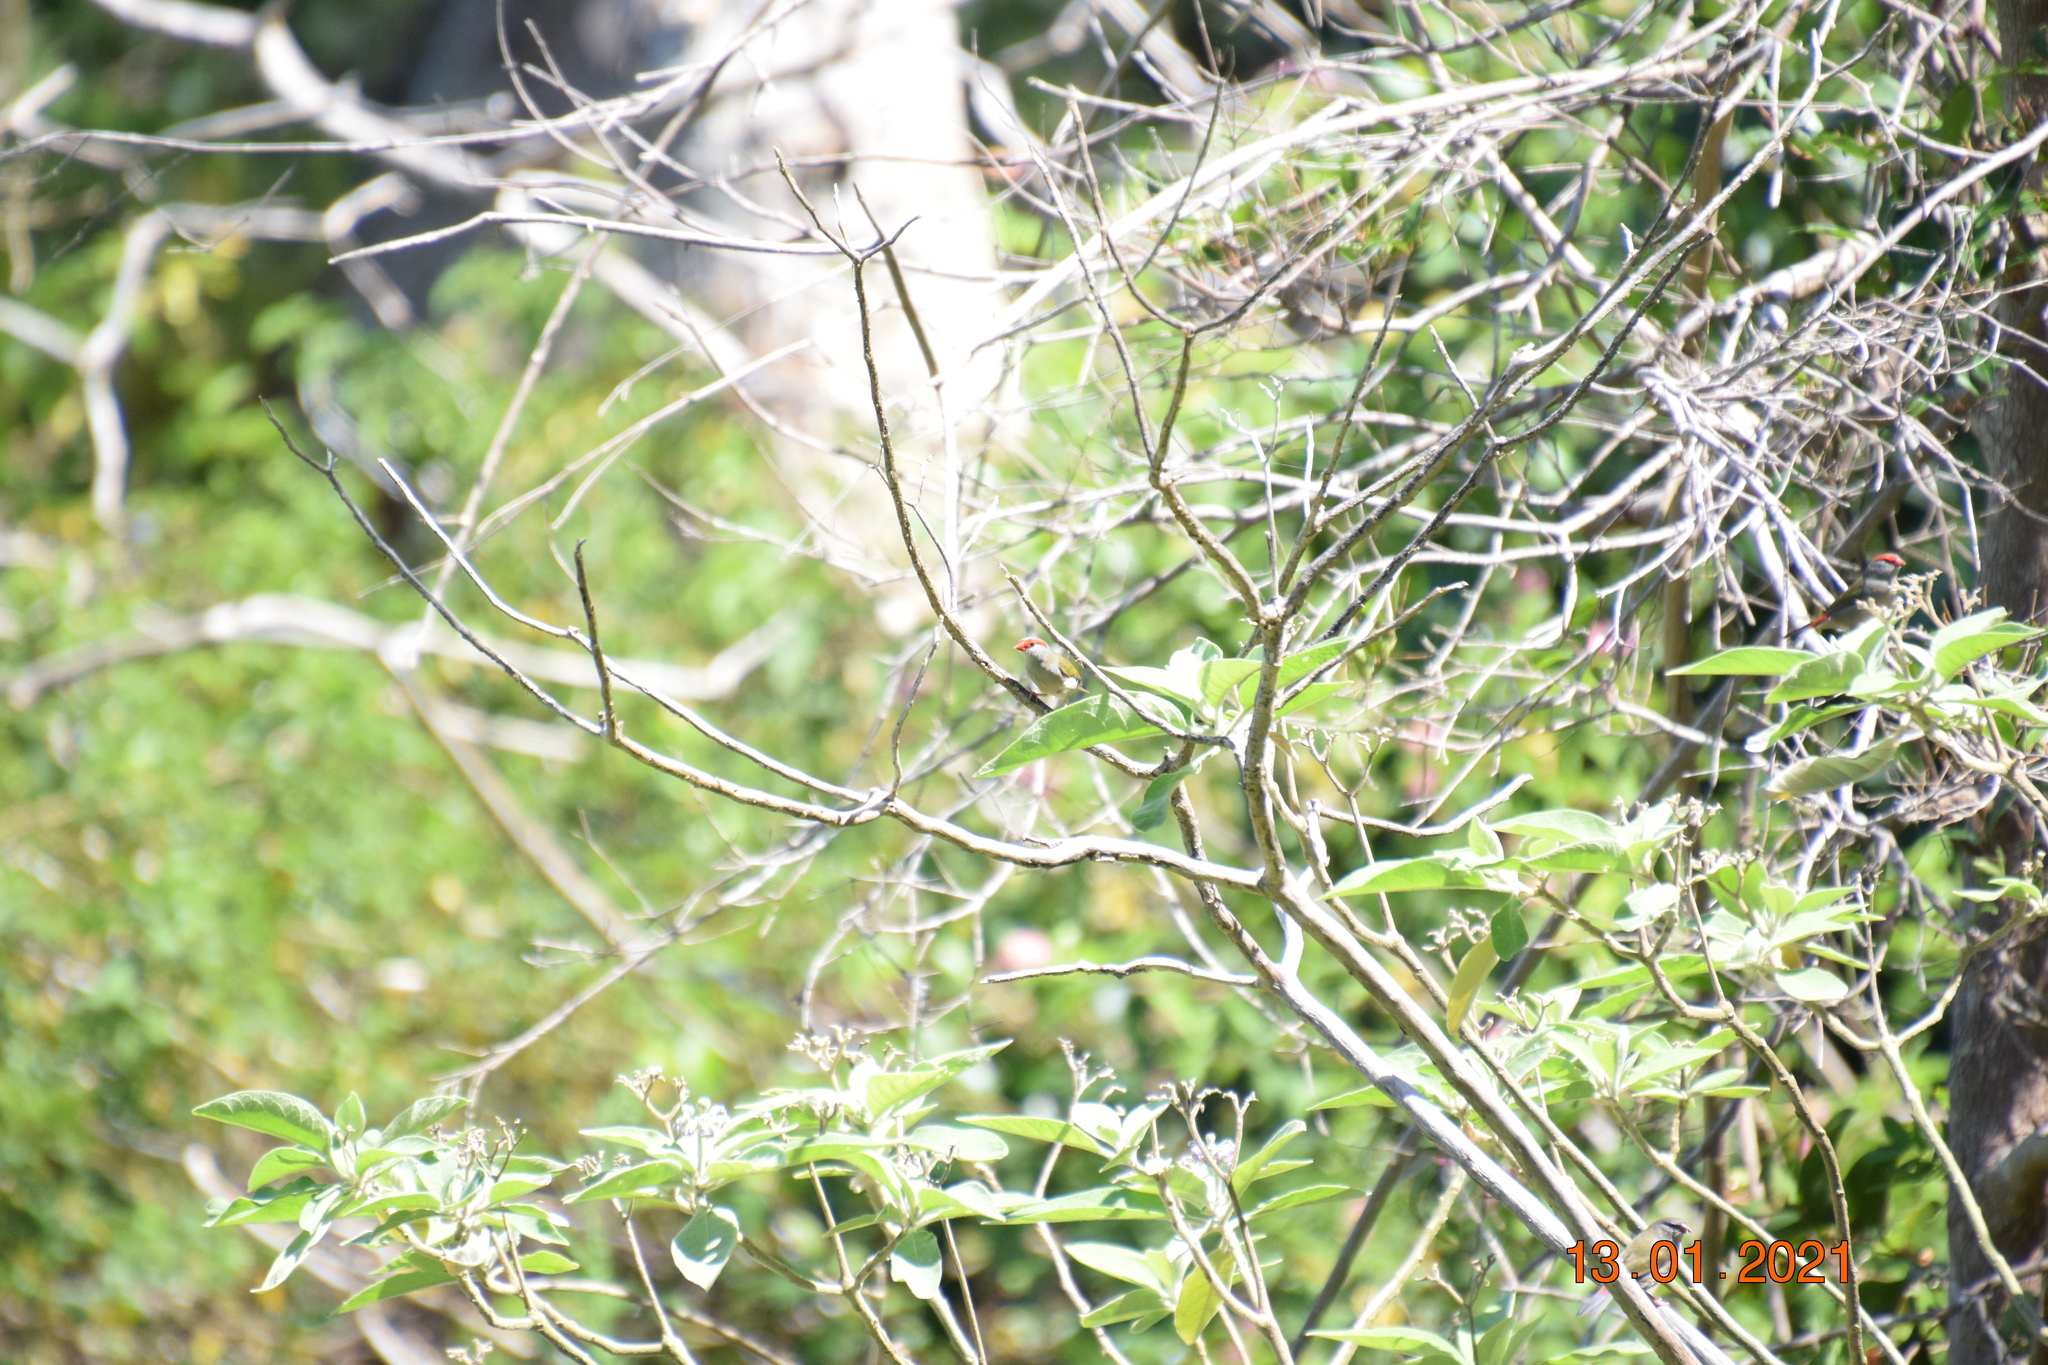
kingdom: Animalia
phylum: Chordata
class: Aves
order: Passeriformes
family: Estrildidae
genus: Neochmia
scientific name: Neochmia temporalis
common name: Red-browed finch
